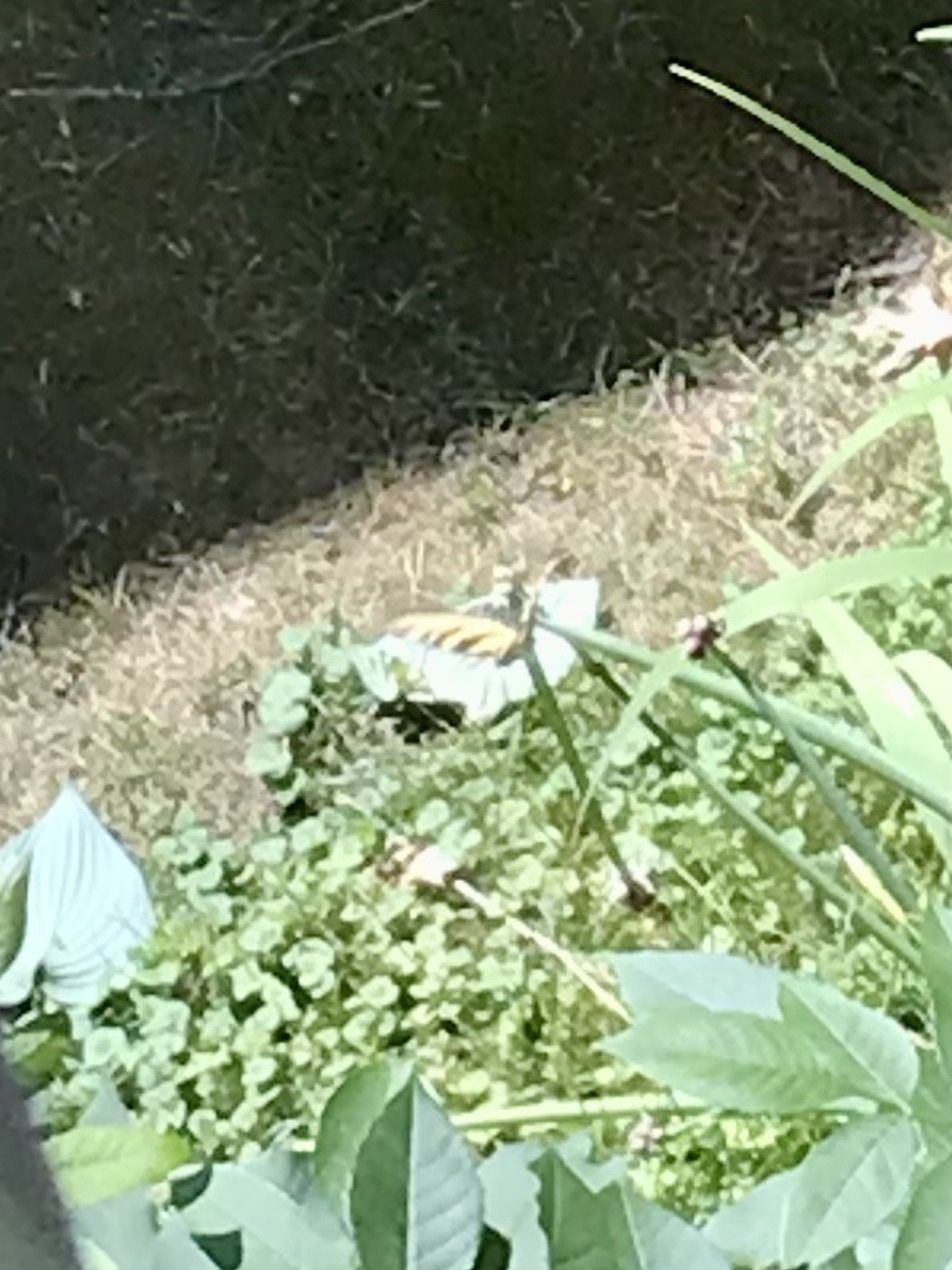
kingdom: Animalia
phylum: Arthropoda
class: Insecta
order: Lepidoptera
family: Papilionidae
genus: Papilio
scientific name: Papilio glaucus
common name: Tiger swallowtail
